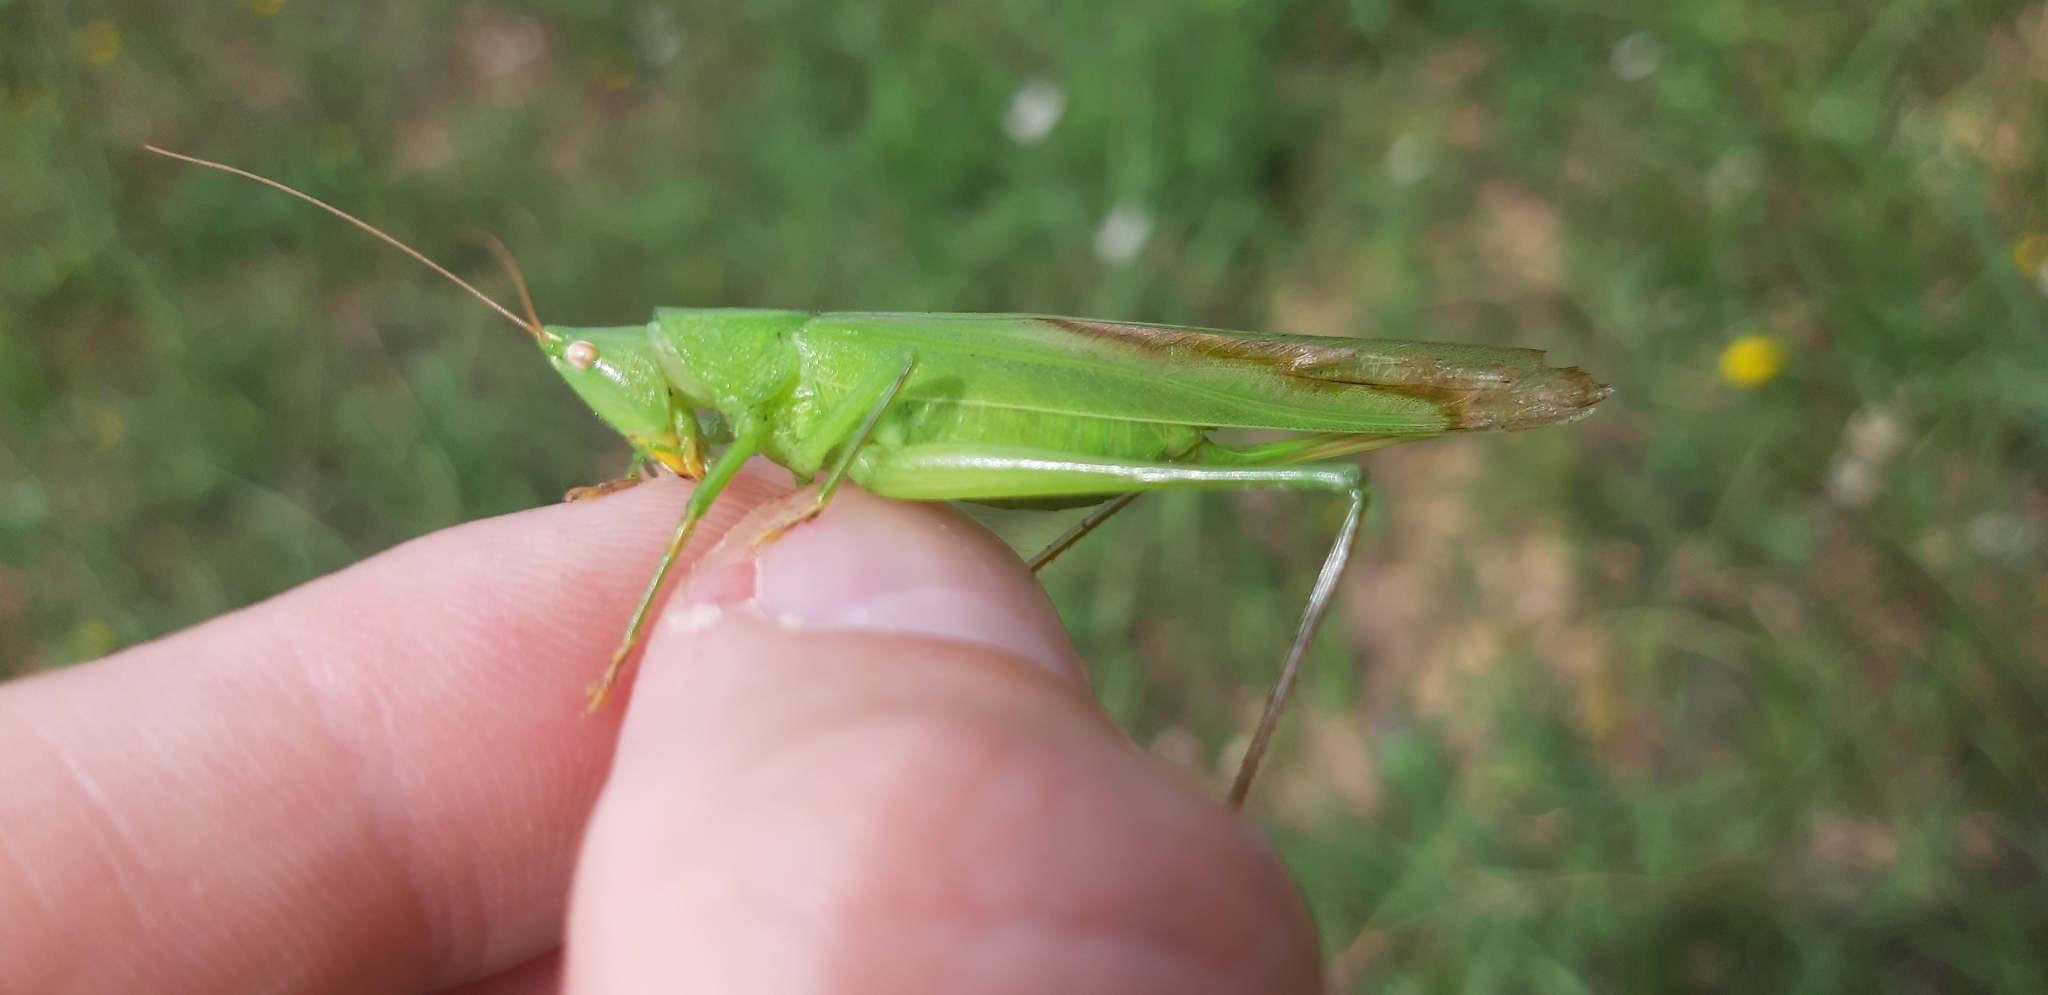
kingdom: Animalia
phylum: Arthropoda
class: Insecta
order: Orthoptera
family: Tettigoniidae
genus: Ruspolia
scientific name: Ruspolia nitidula
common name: Large conehead
